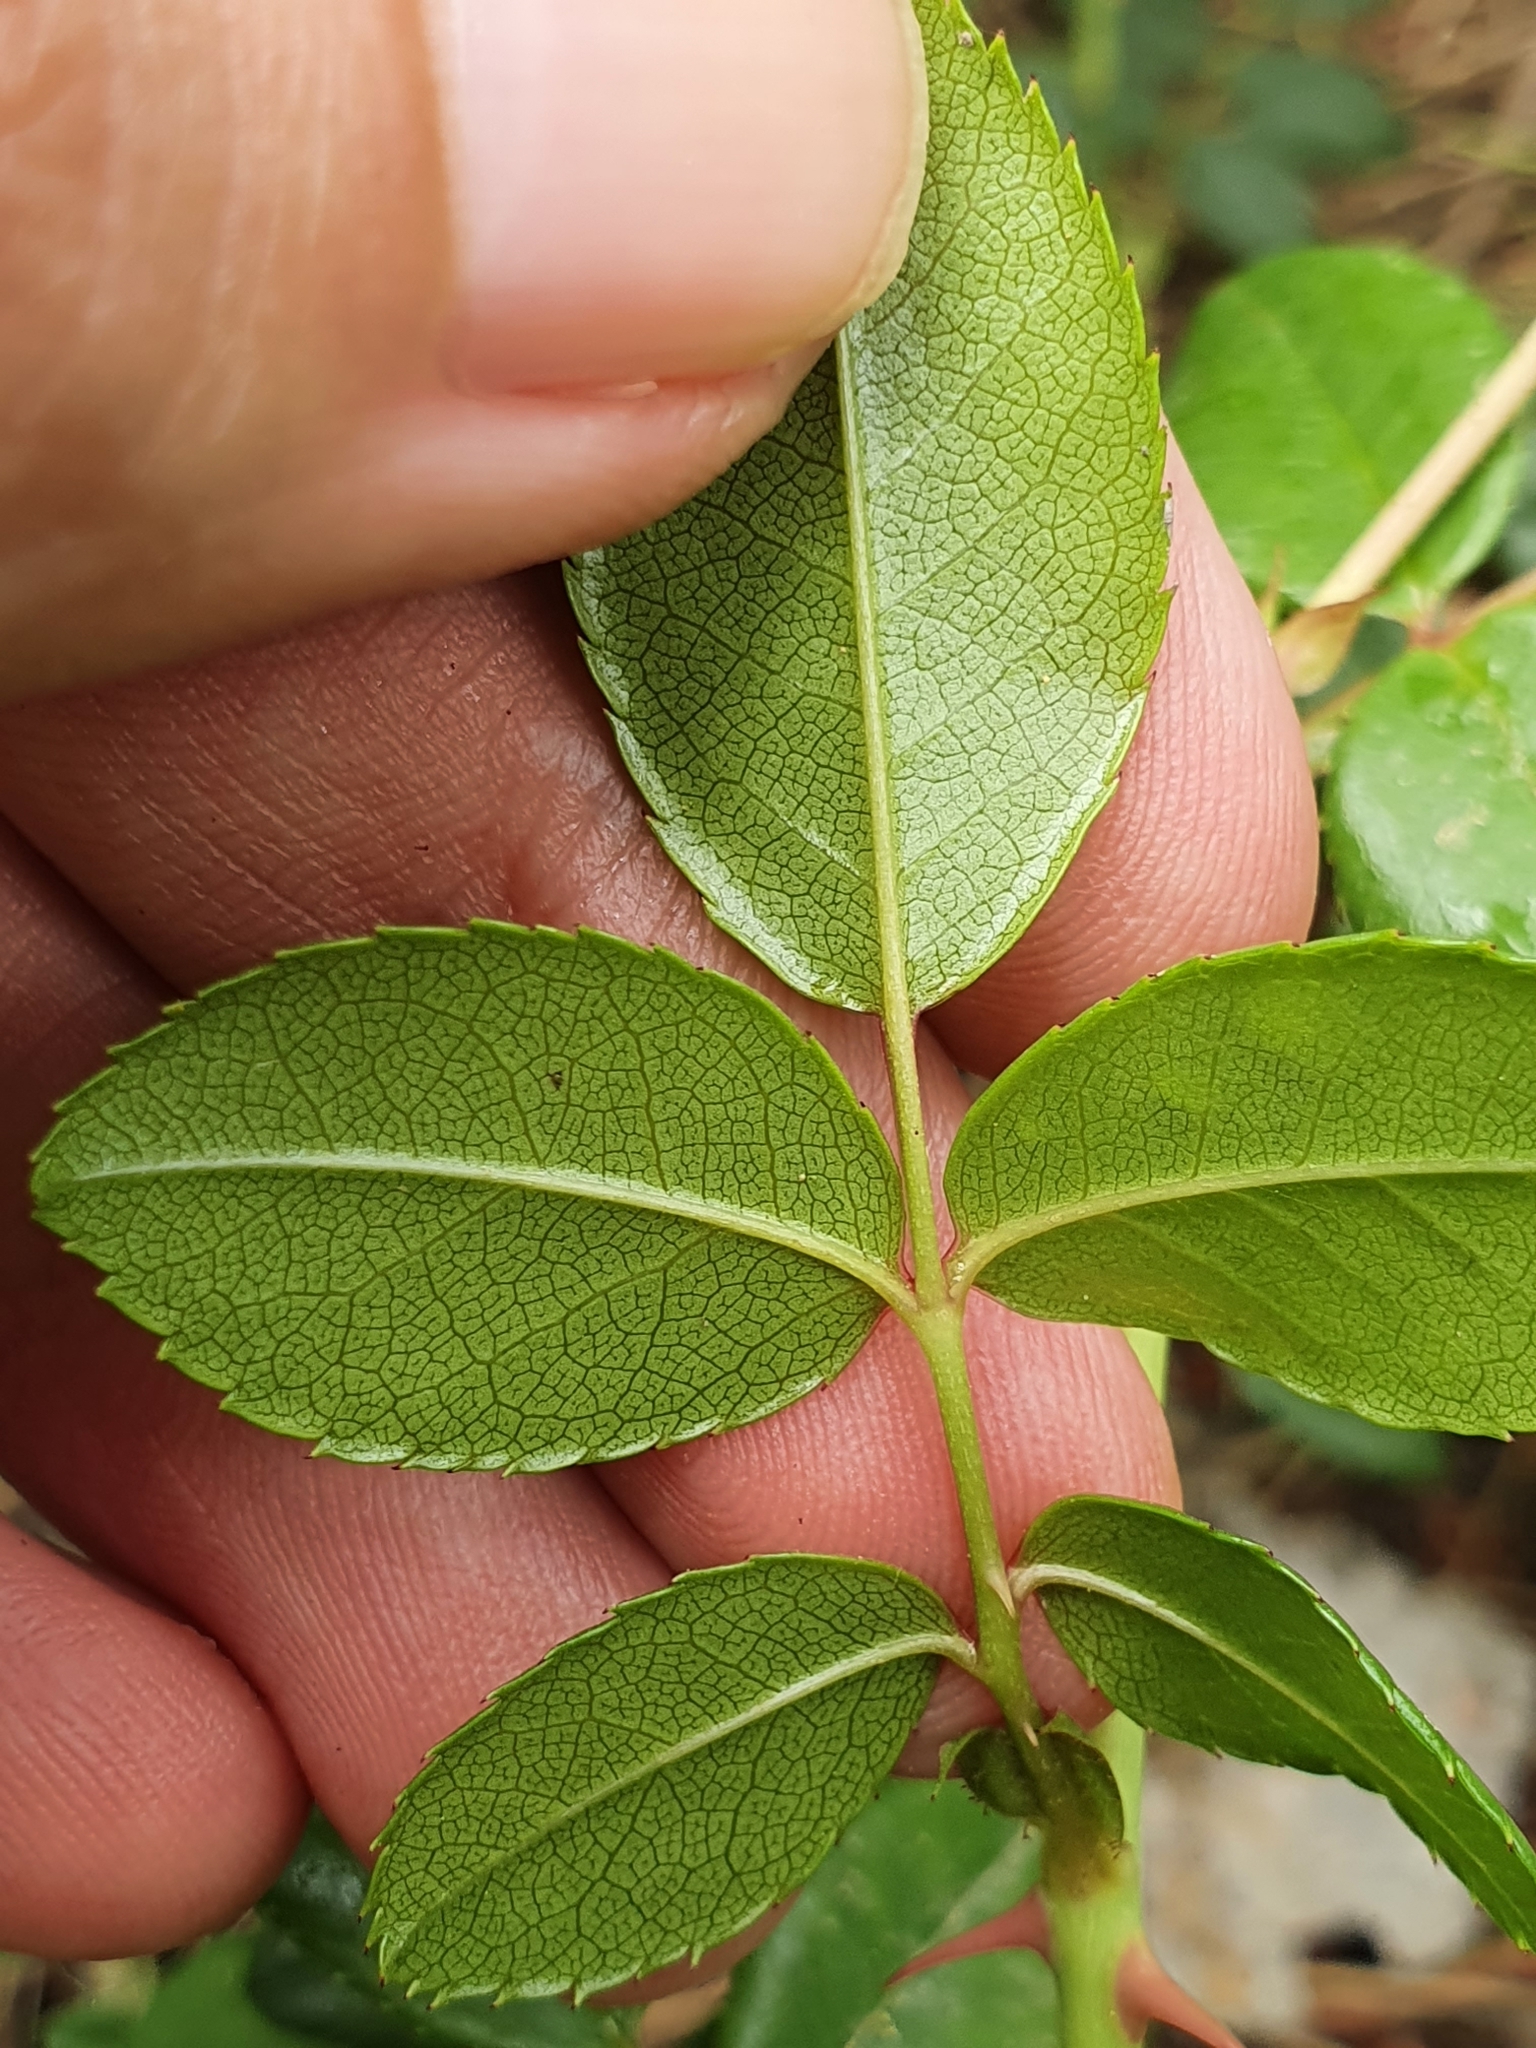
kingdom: Plantae
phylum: Tracheophyta
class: Magnoliopsida
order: Rosales
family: Rosaceae
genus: Rosa
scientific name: Rosa sempervirens
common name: Evergreen rose
